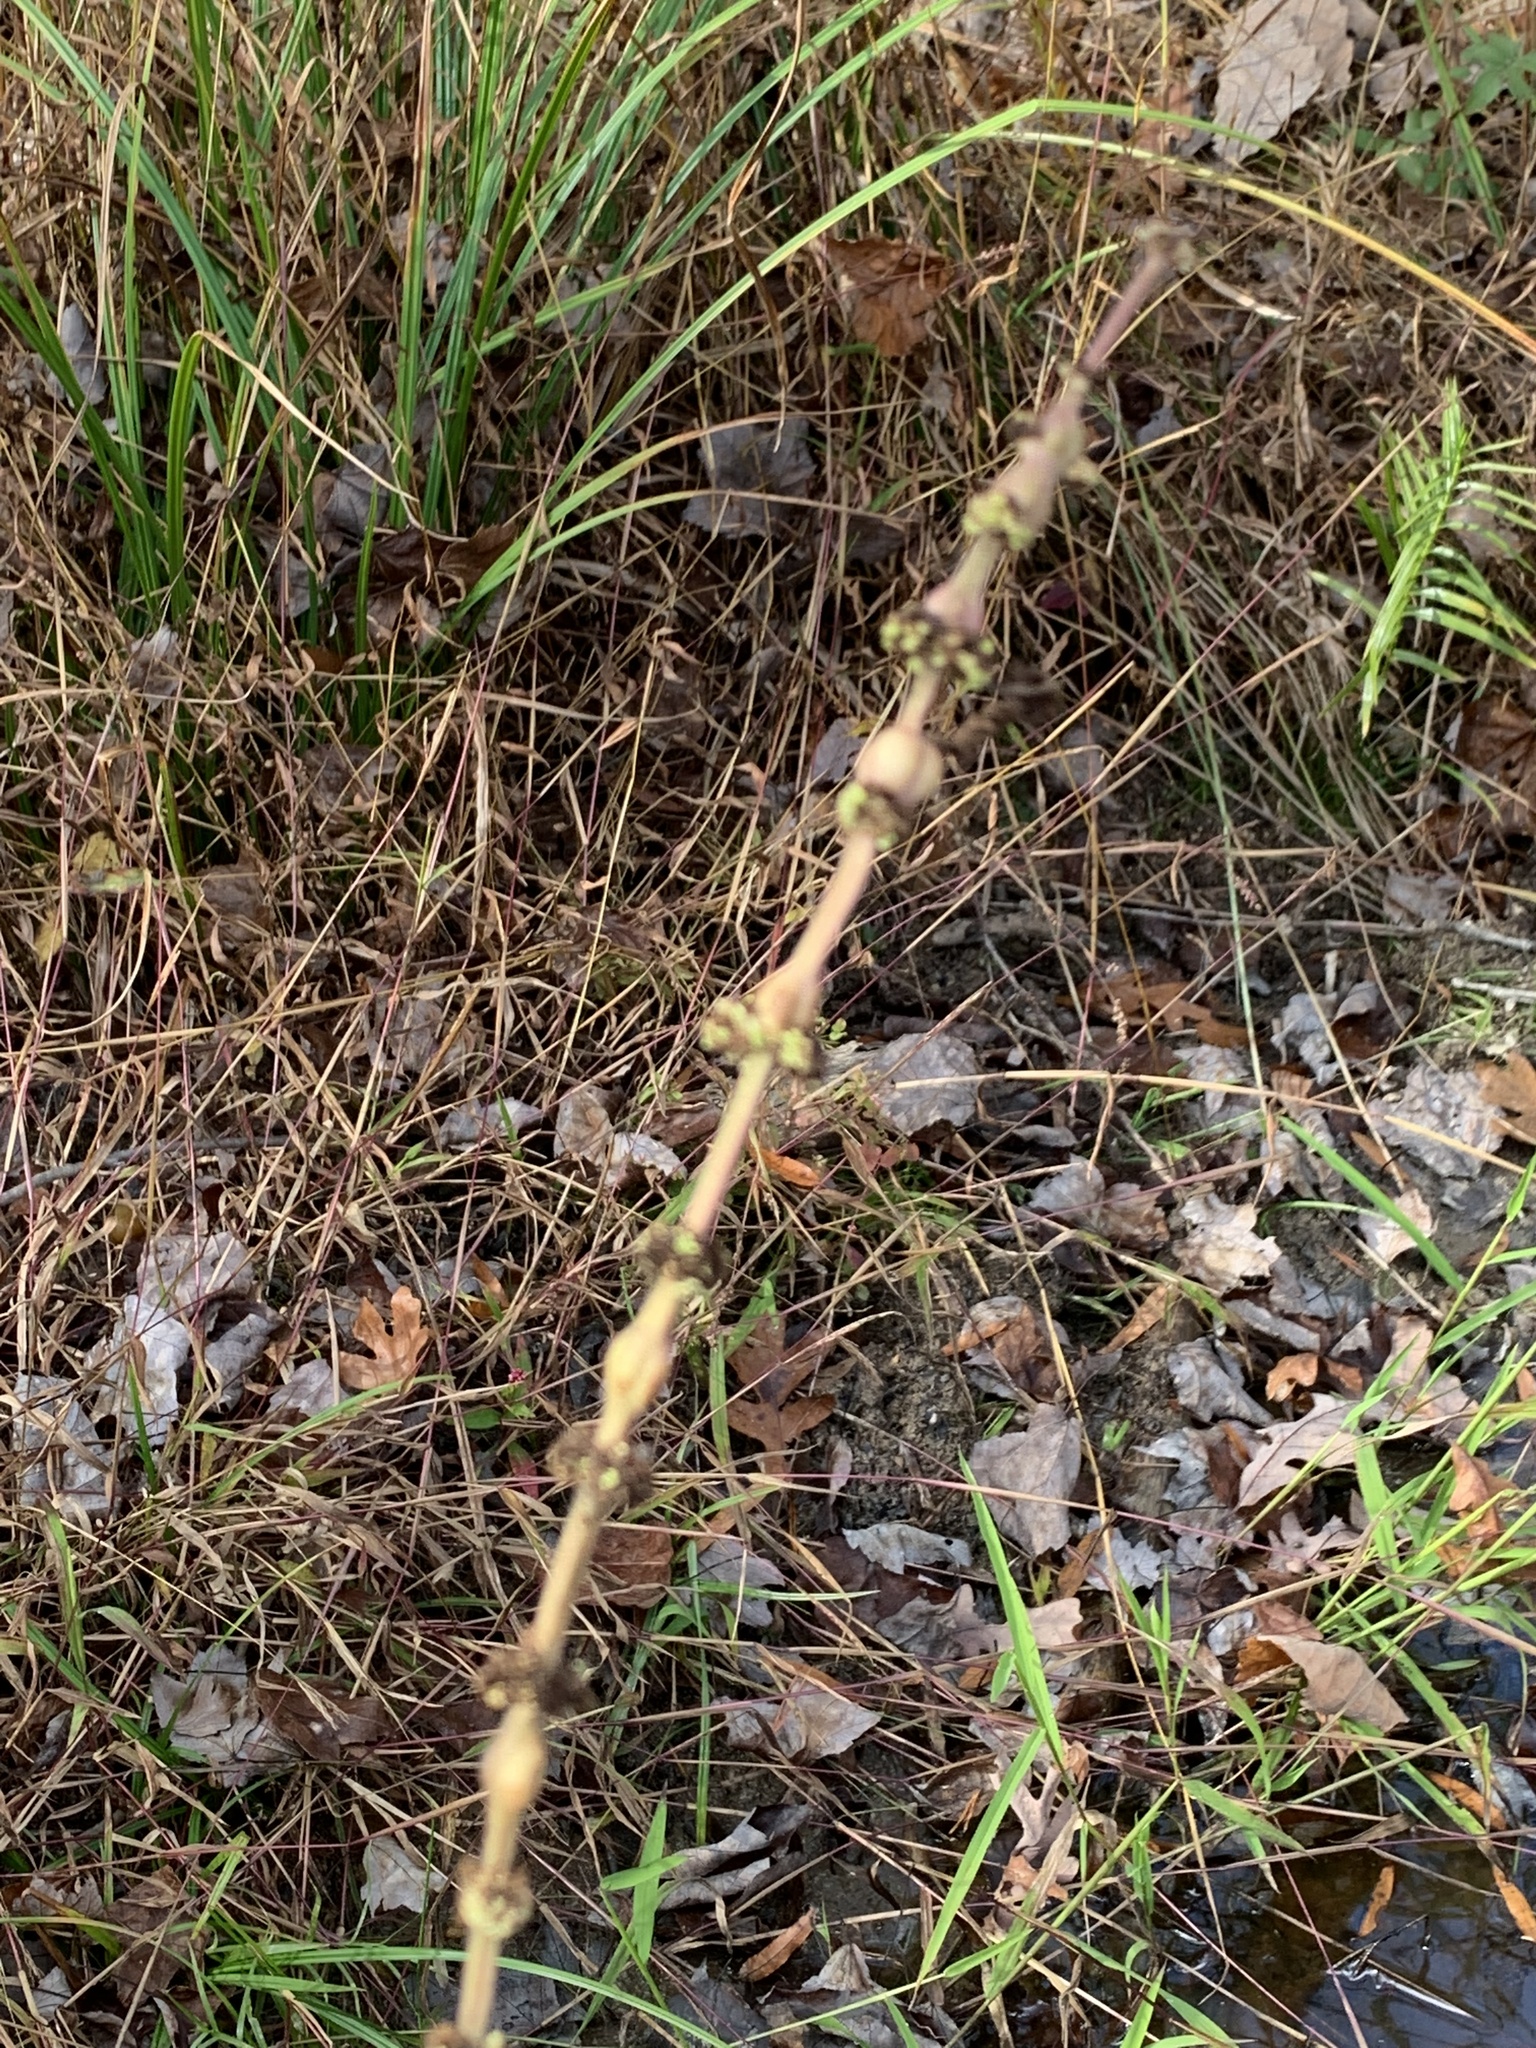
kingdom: Animalia
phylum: Arthropoda
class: Insecta
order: Diptera
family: Cecidomyiidae
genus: Neolasioptera
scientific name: Neolasioptera lycopi
